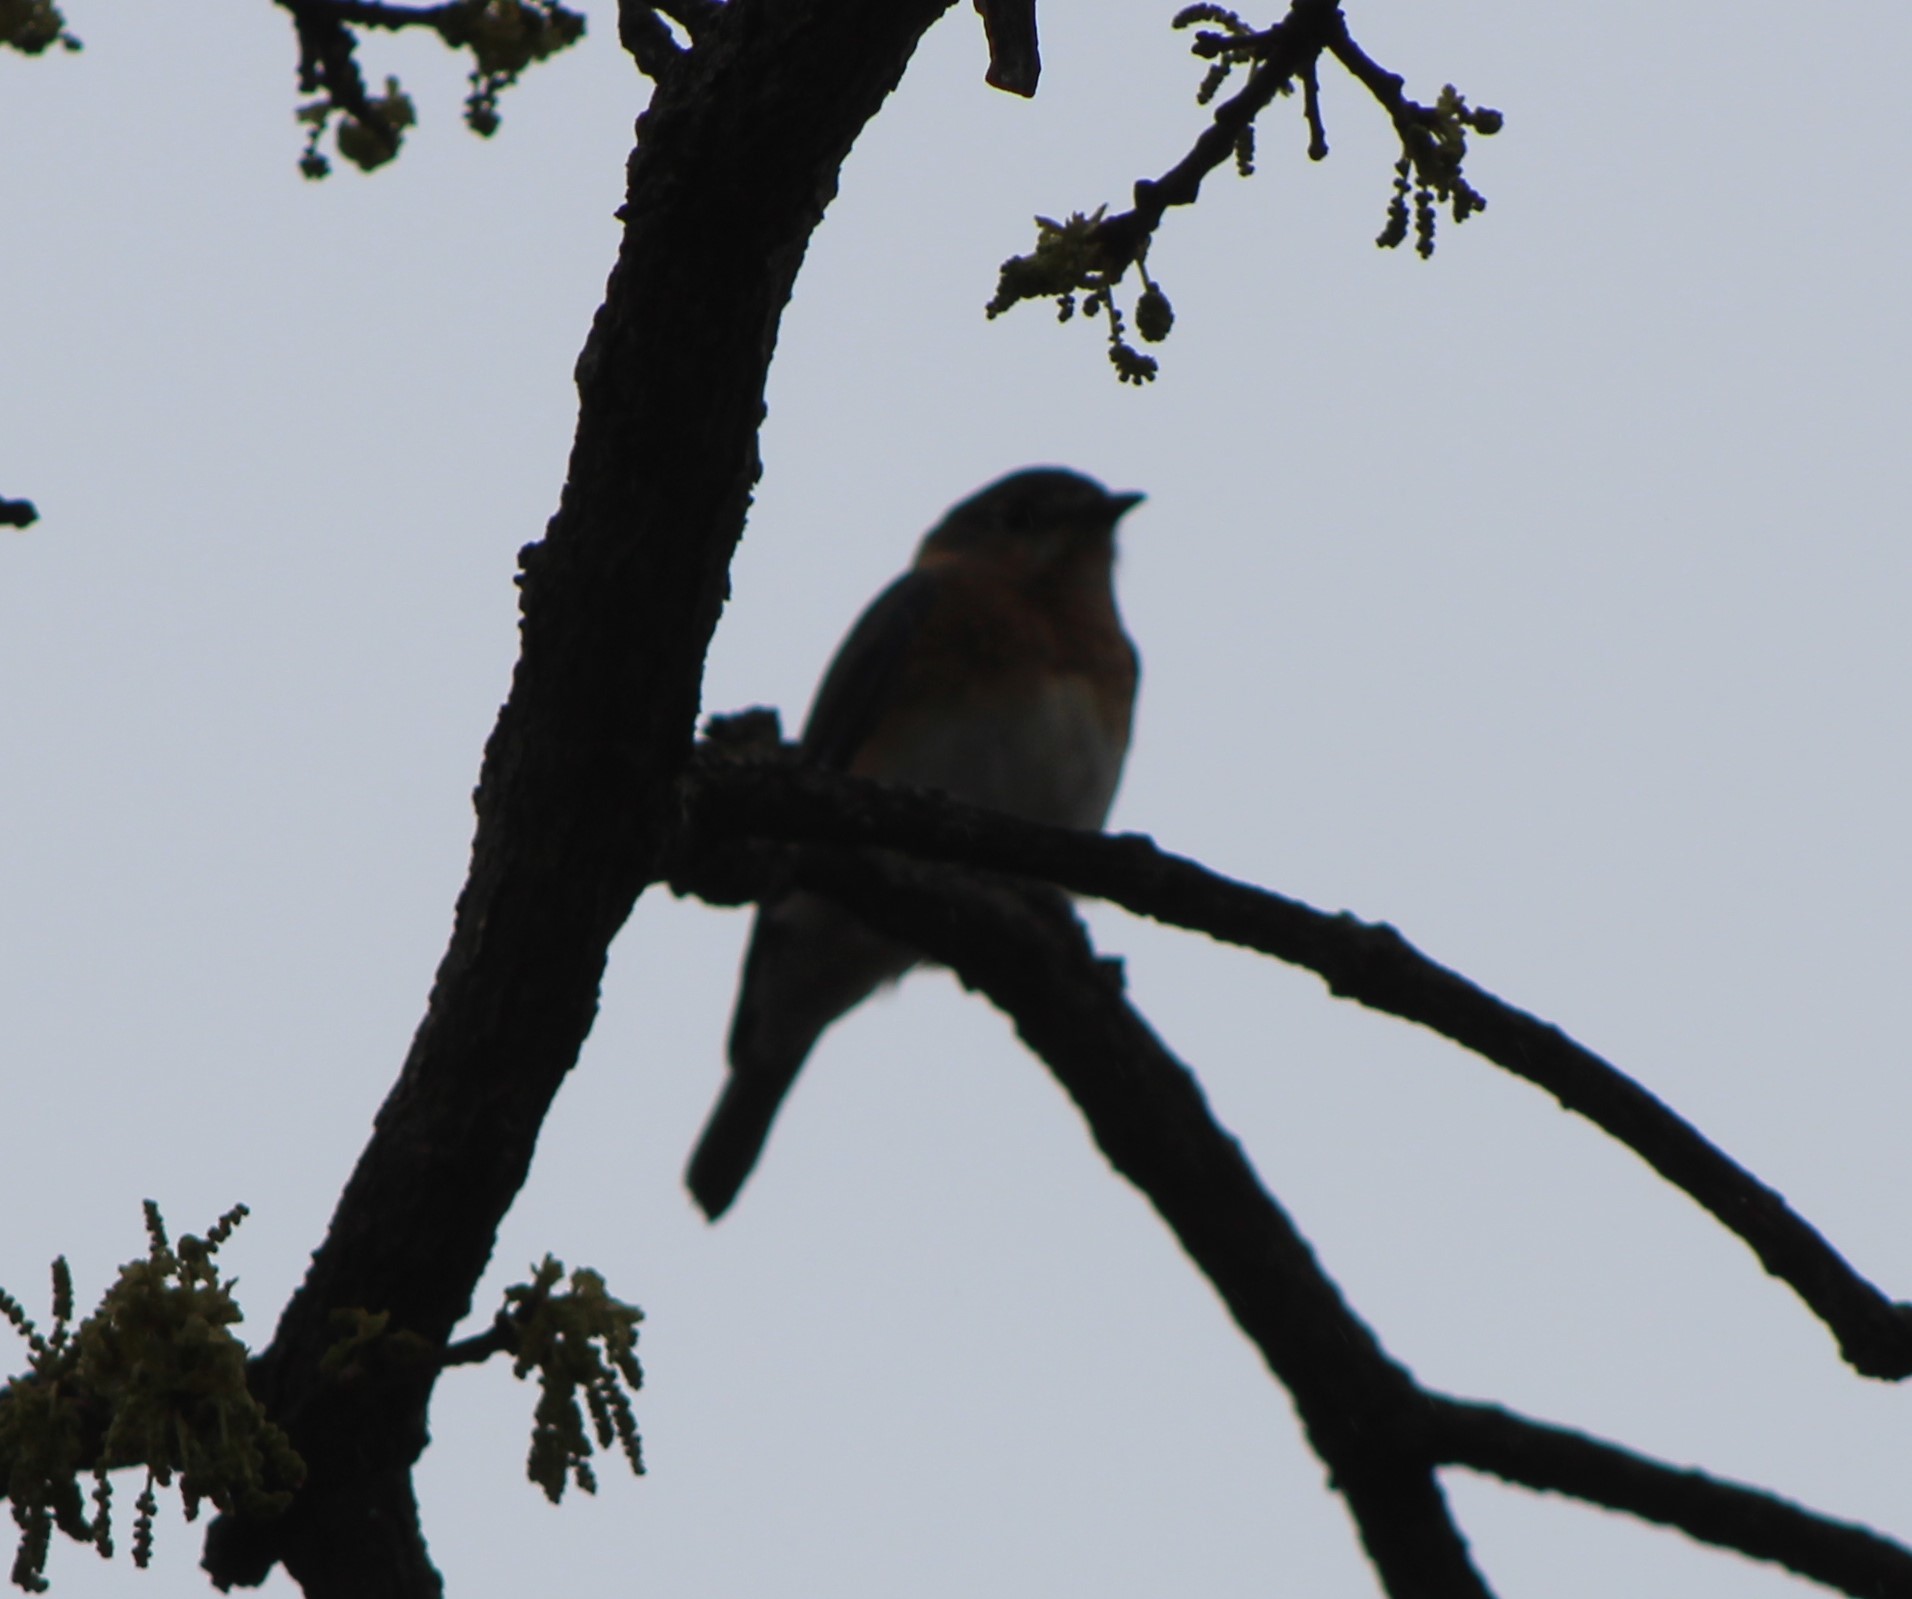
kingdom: Animalia
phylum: Chordata
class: Aves
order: Passeriformes
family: Turdidae
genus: Sialia
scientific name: Sialia sialis
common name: Eastern bluebird
